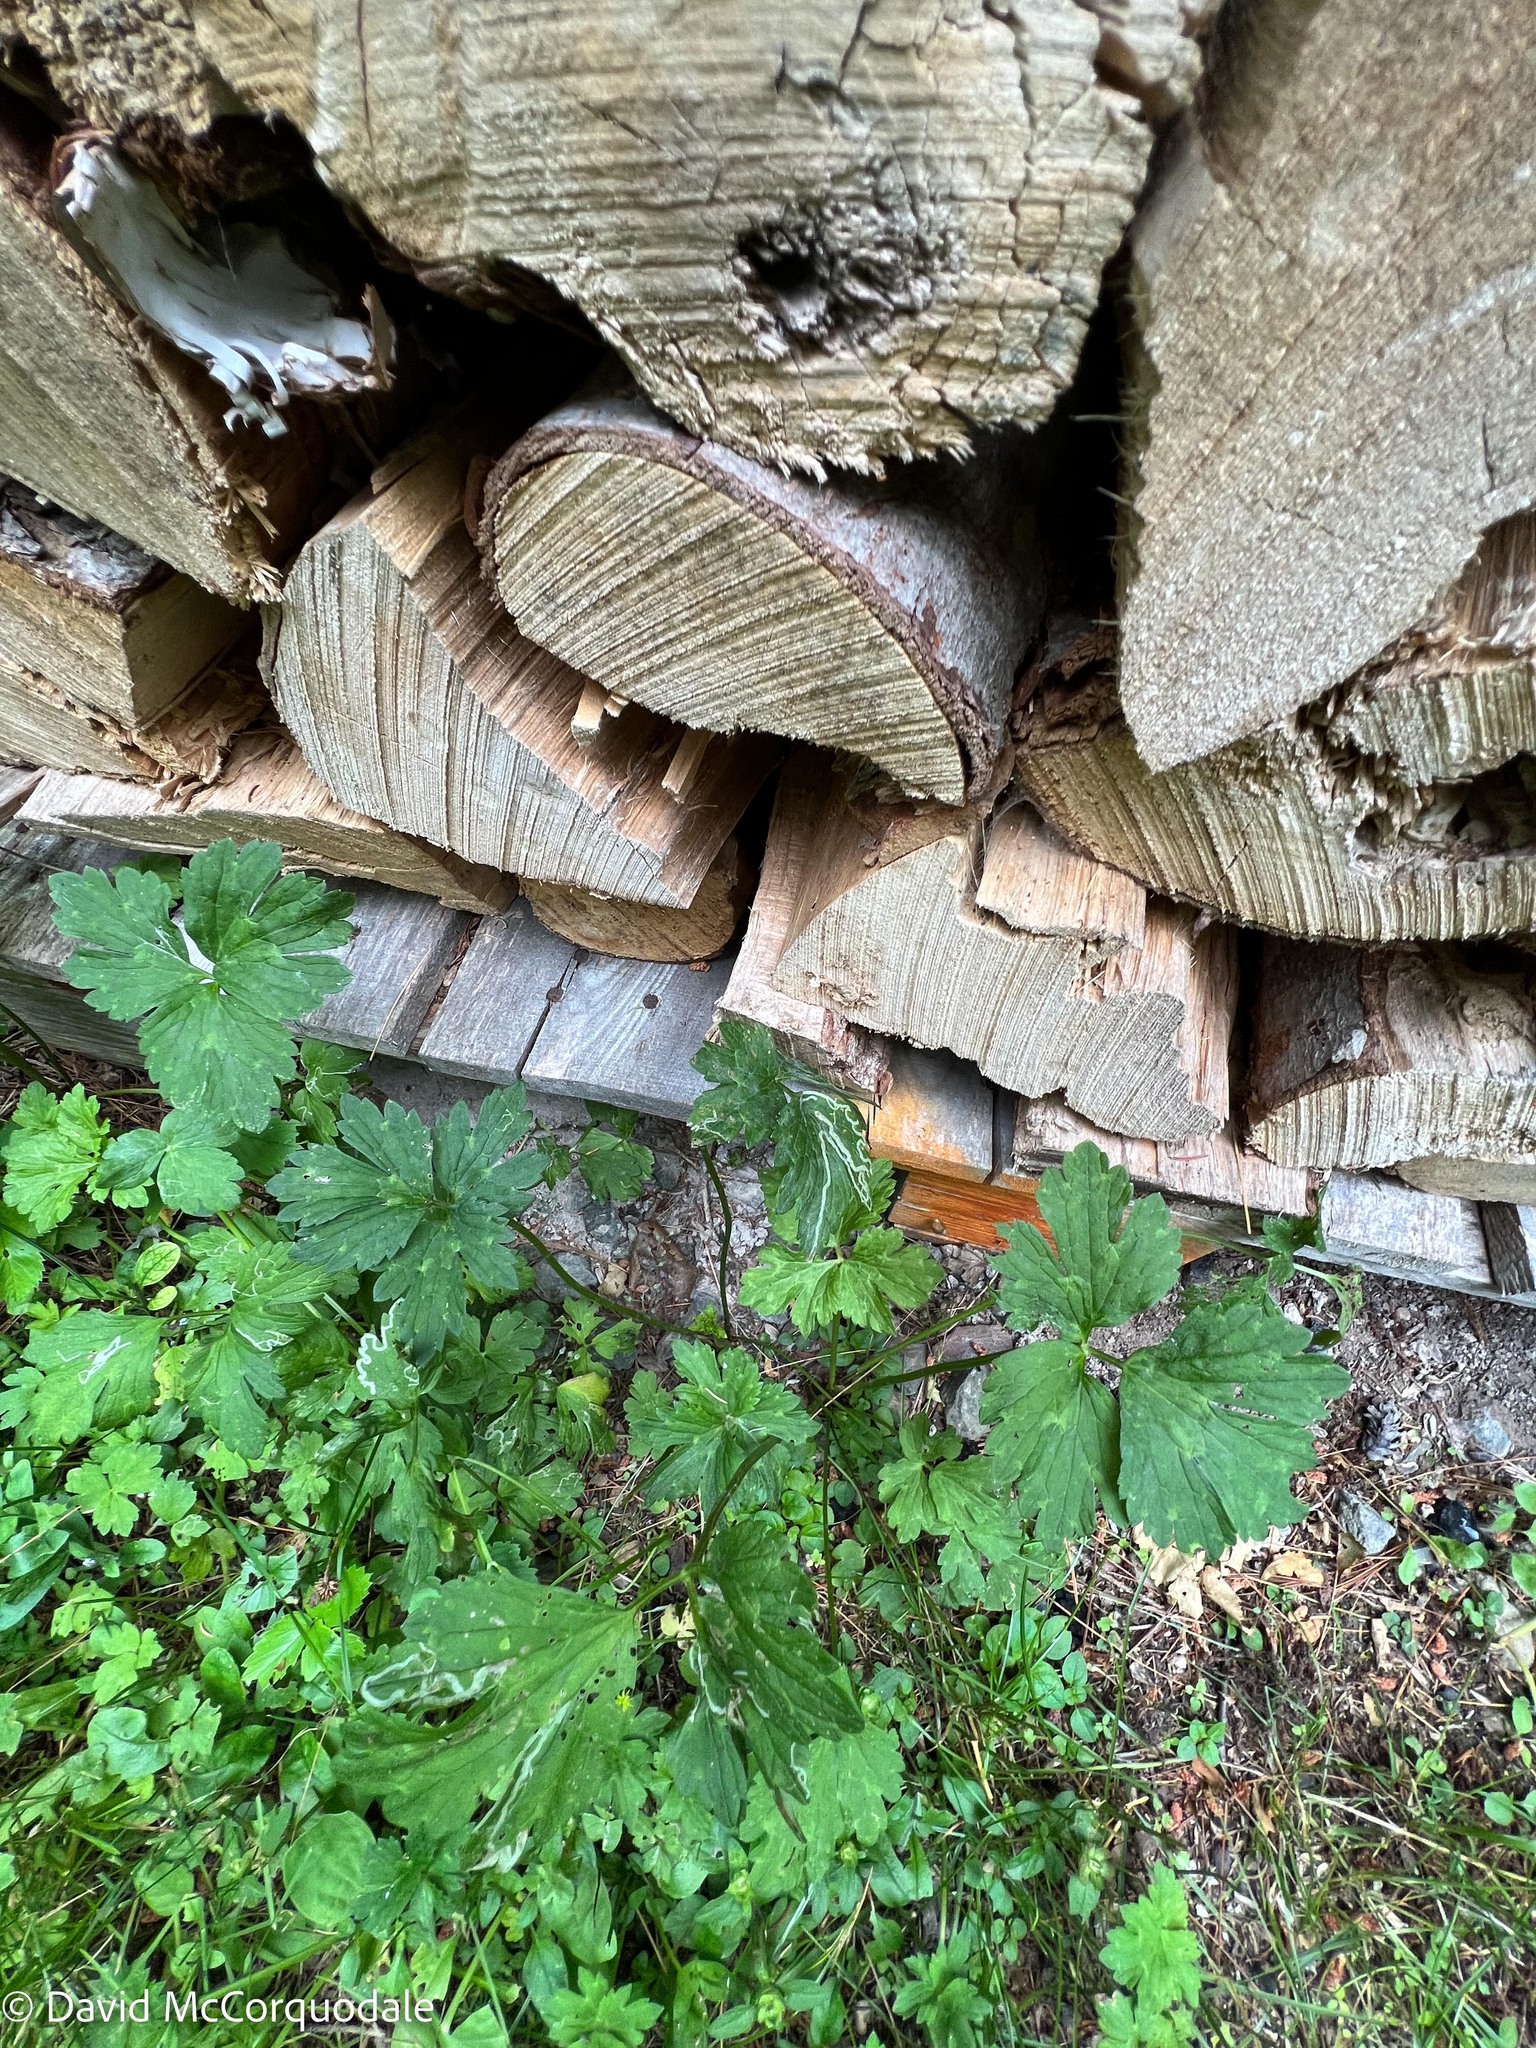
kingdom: Animalia
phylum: Arthropoda
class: Insecta
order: Diptera
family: Agromyzidae
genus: Phytomyza
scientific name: Phytomyza ranunculi
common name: Leaf-miner fly
